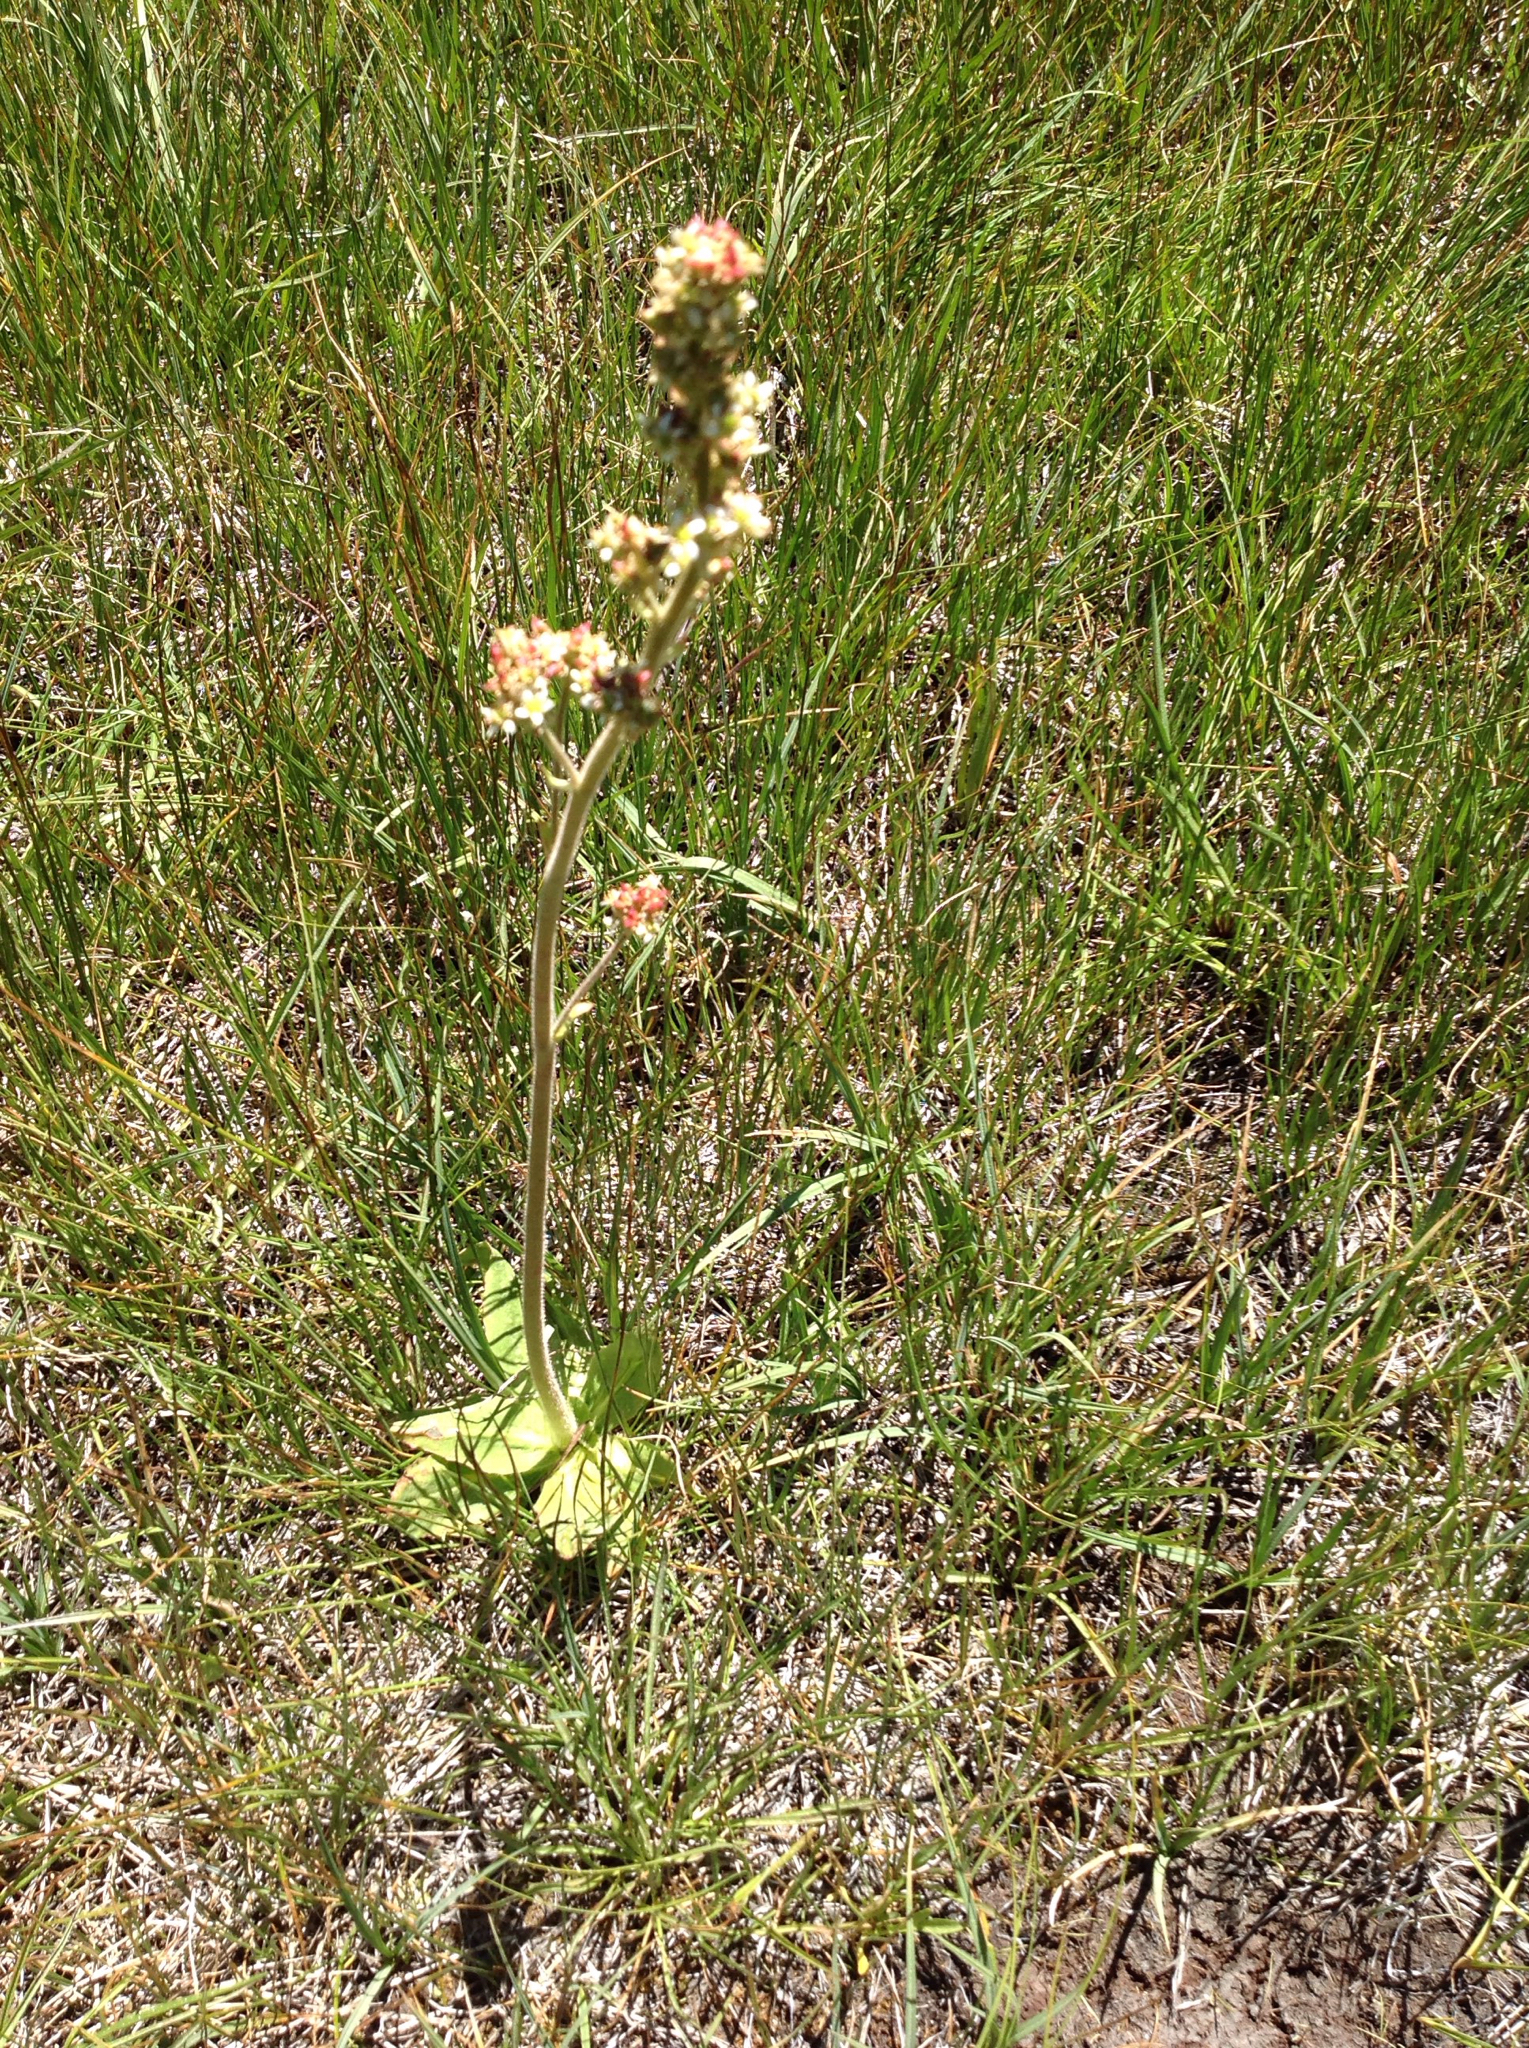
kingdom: Plantae
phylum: Tracheophyta
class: Magnoliopsida
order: Saxifragales
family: Saxifragaceae
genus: Micranthes
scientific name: Micranthes oregana
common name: Bog saxifrage
